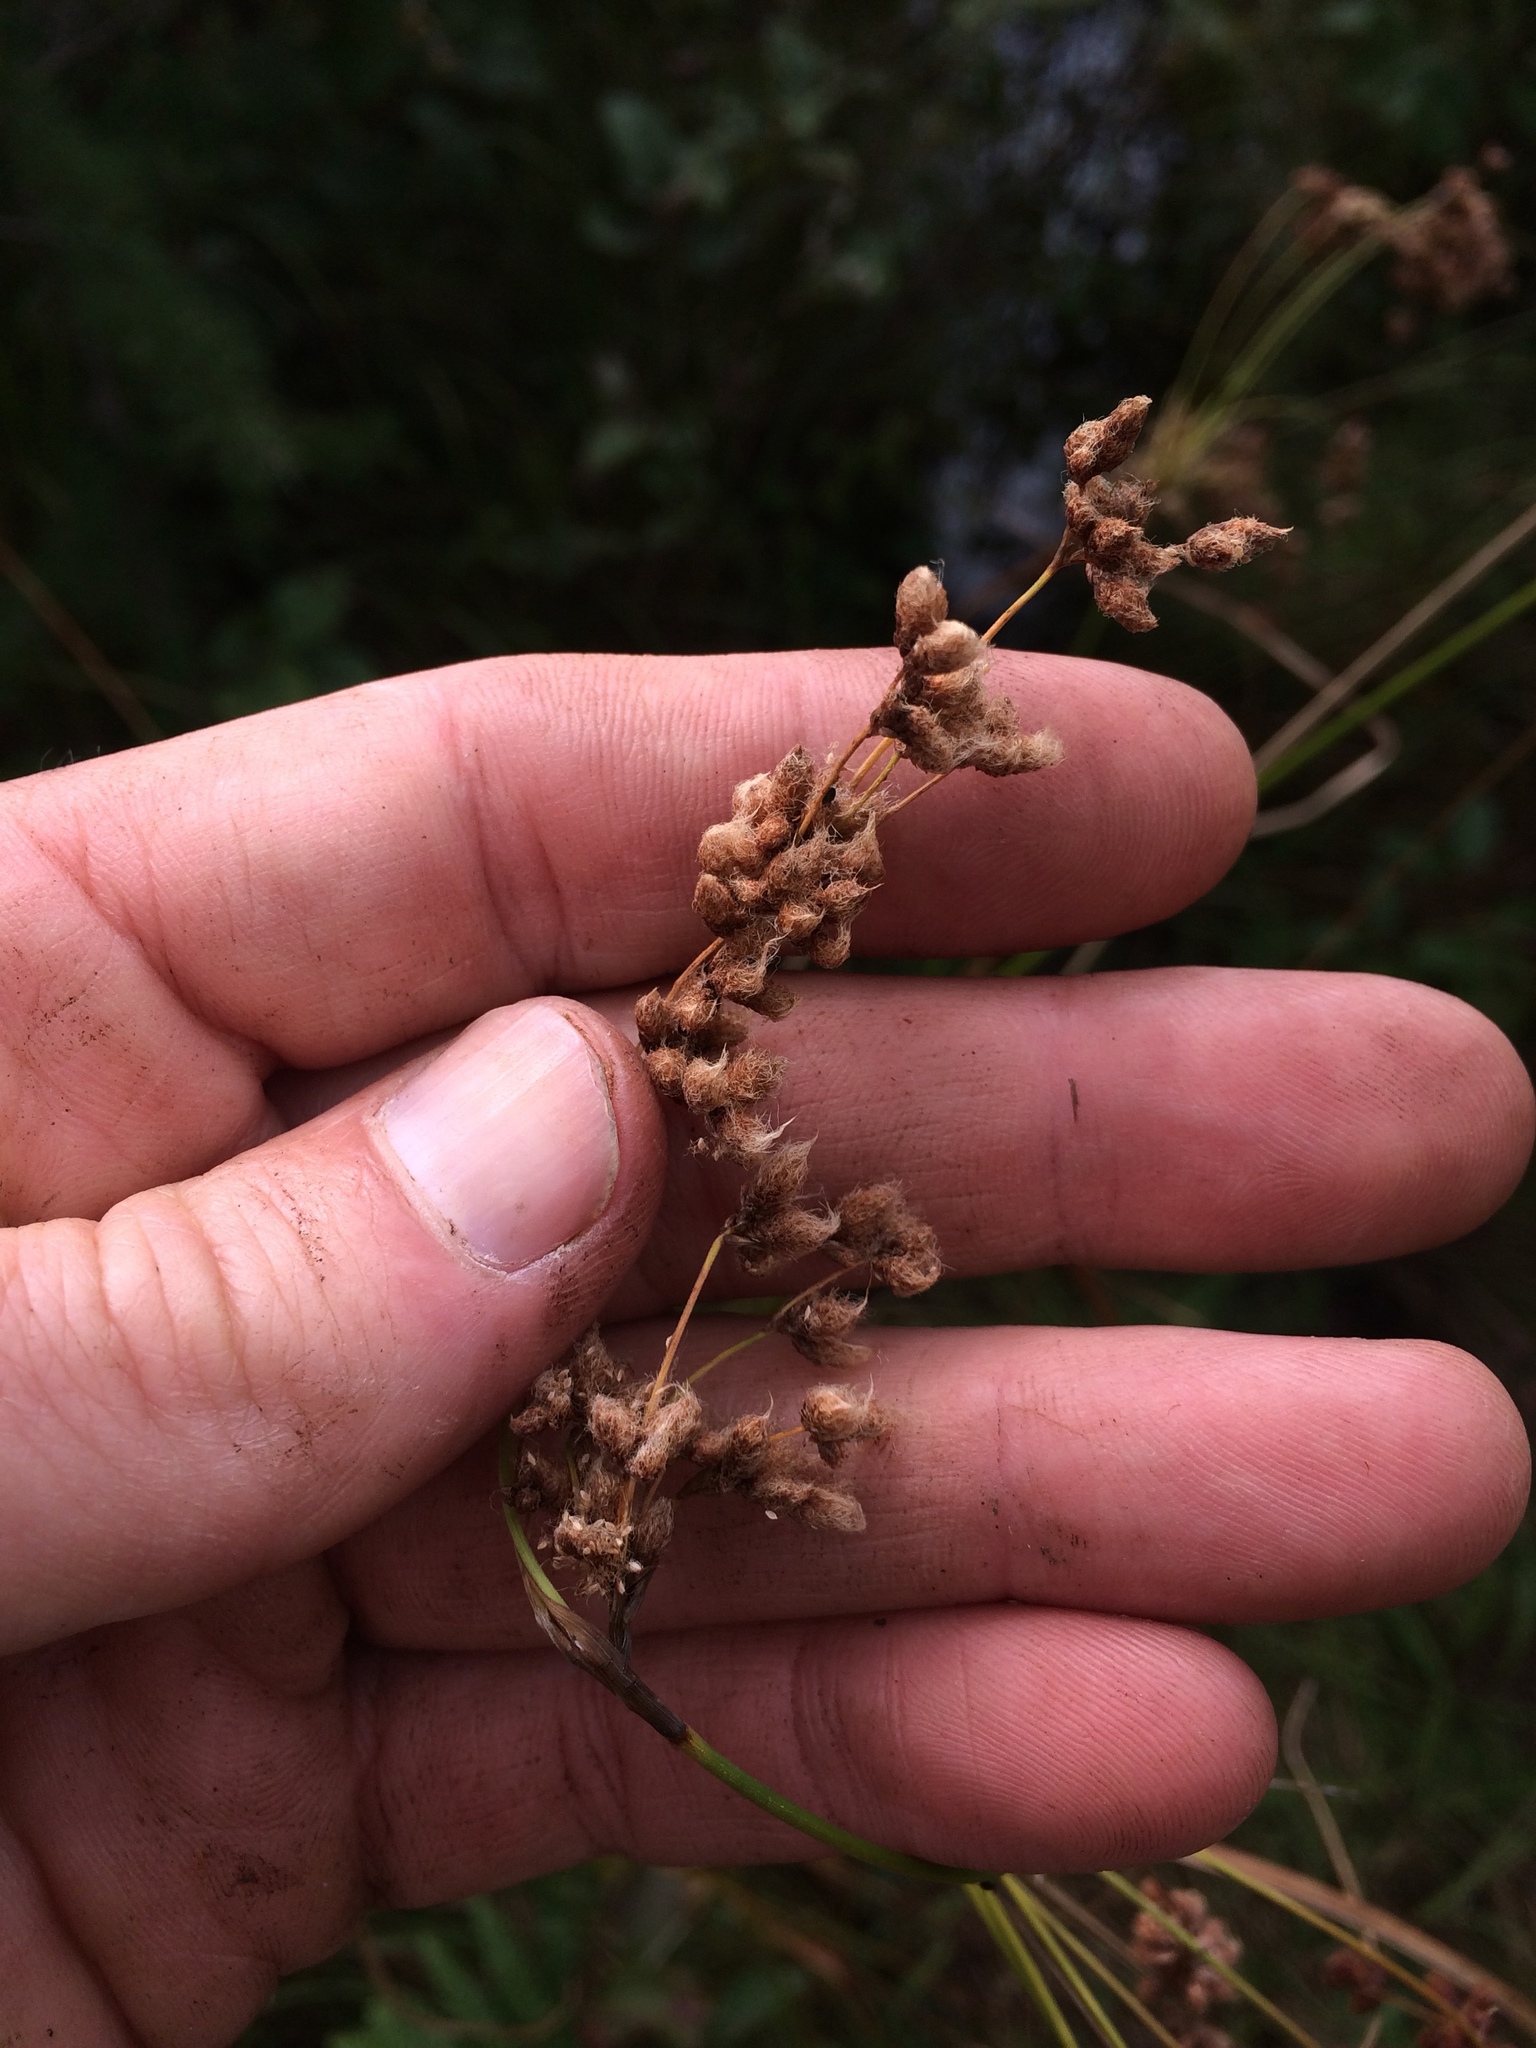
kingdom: Plantae
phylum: Tracheophyta
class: Liliopsida
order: Poales
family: Cyperaceae
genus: Scirpus
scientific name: Scirpus cyperinus
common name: Black-sheathed bulrush
